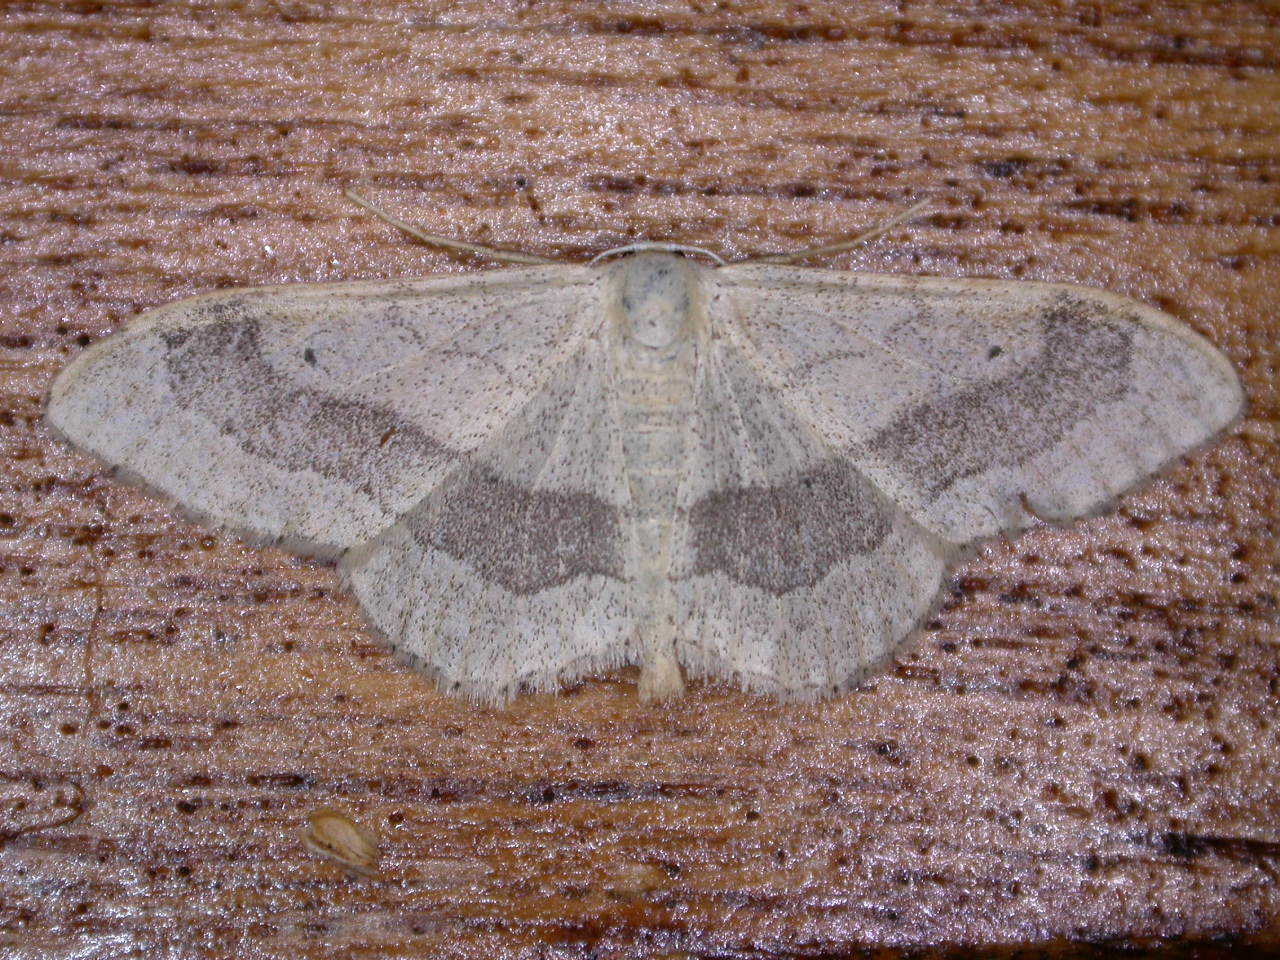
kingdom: Animalia
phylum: Arthropoda
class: Insecta
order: Lepidoptera
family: Geometridae
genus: Idaea
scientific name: Idaea aversata
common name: Riband wave
